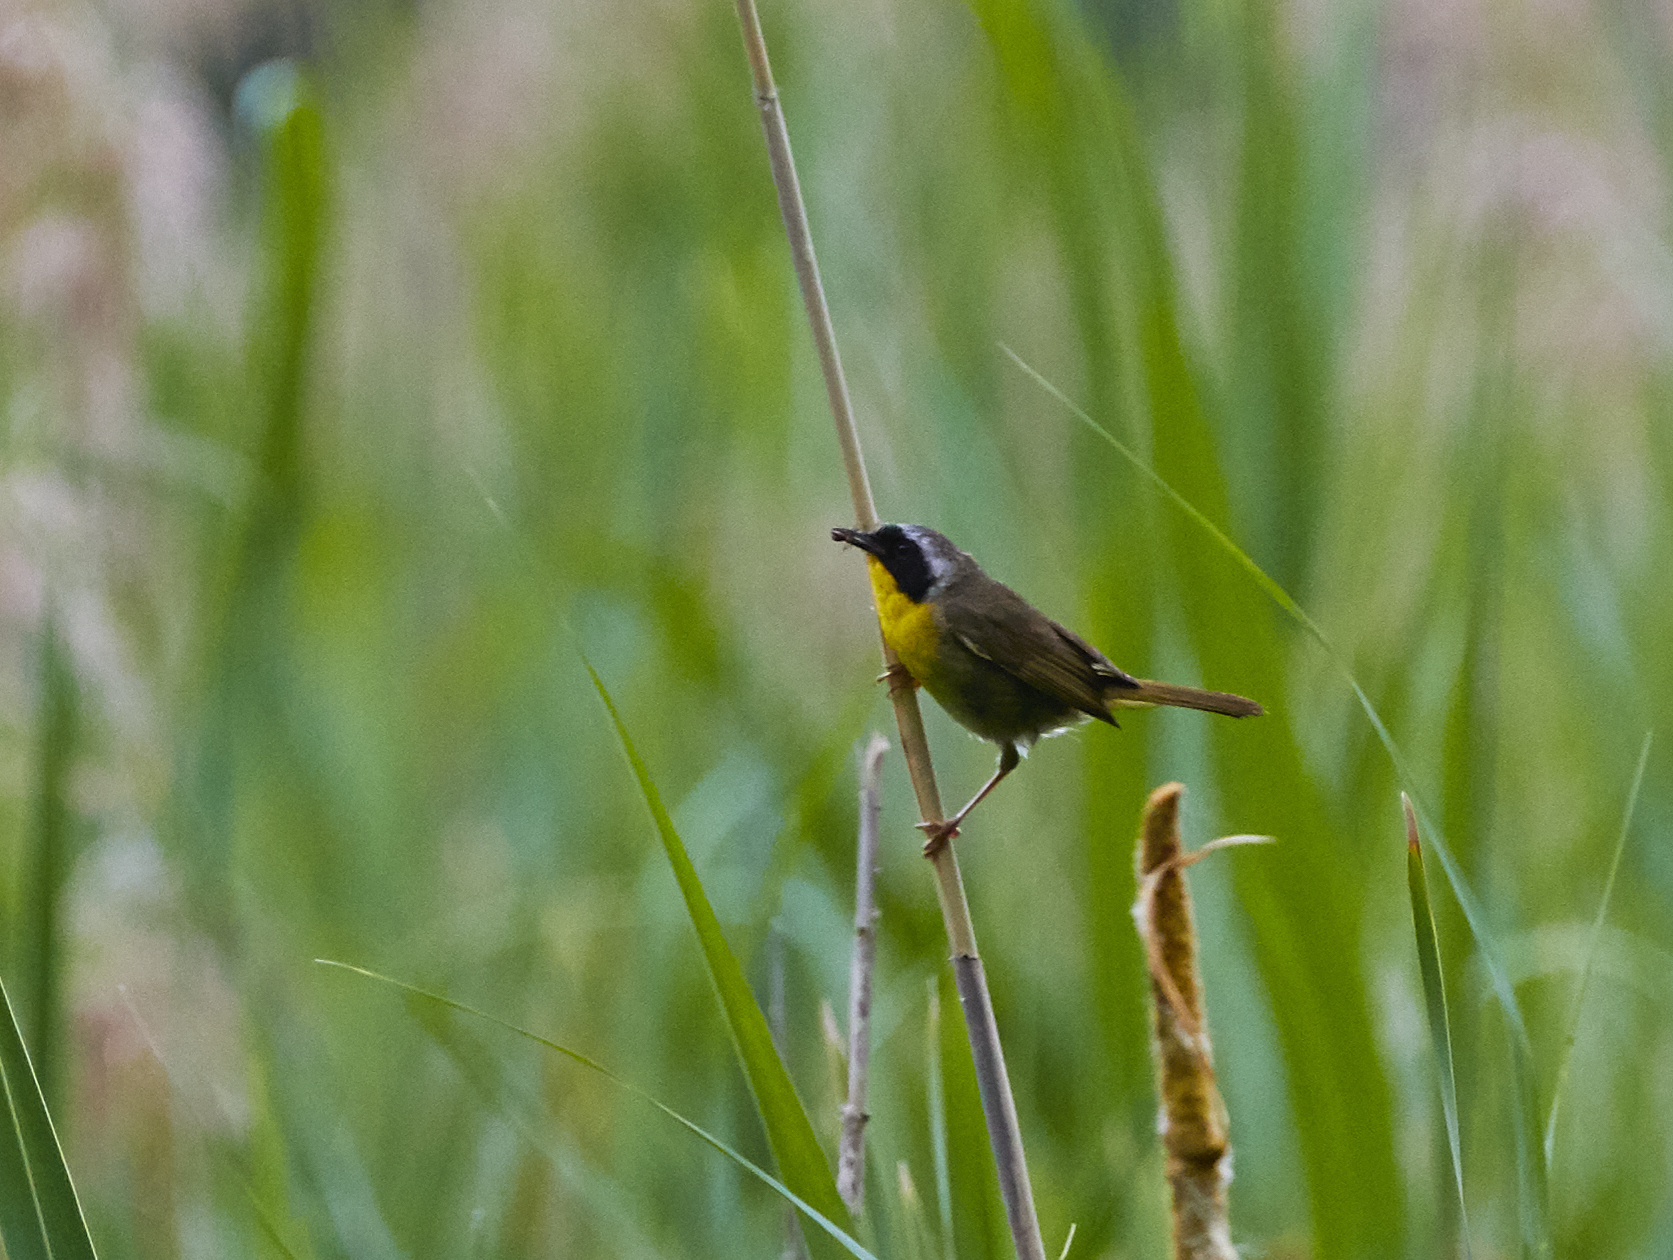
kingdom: Animalia
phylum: Chordata
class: Aves
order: Passeriformes
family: Parulidae
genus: Geothlypis
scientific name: Geothlypis trichas
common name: Common yellowthroat
